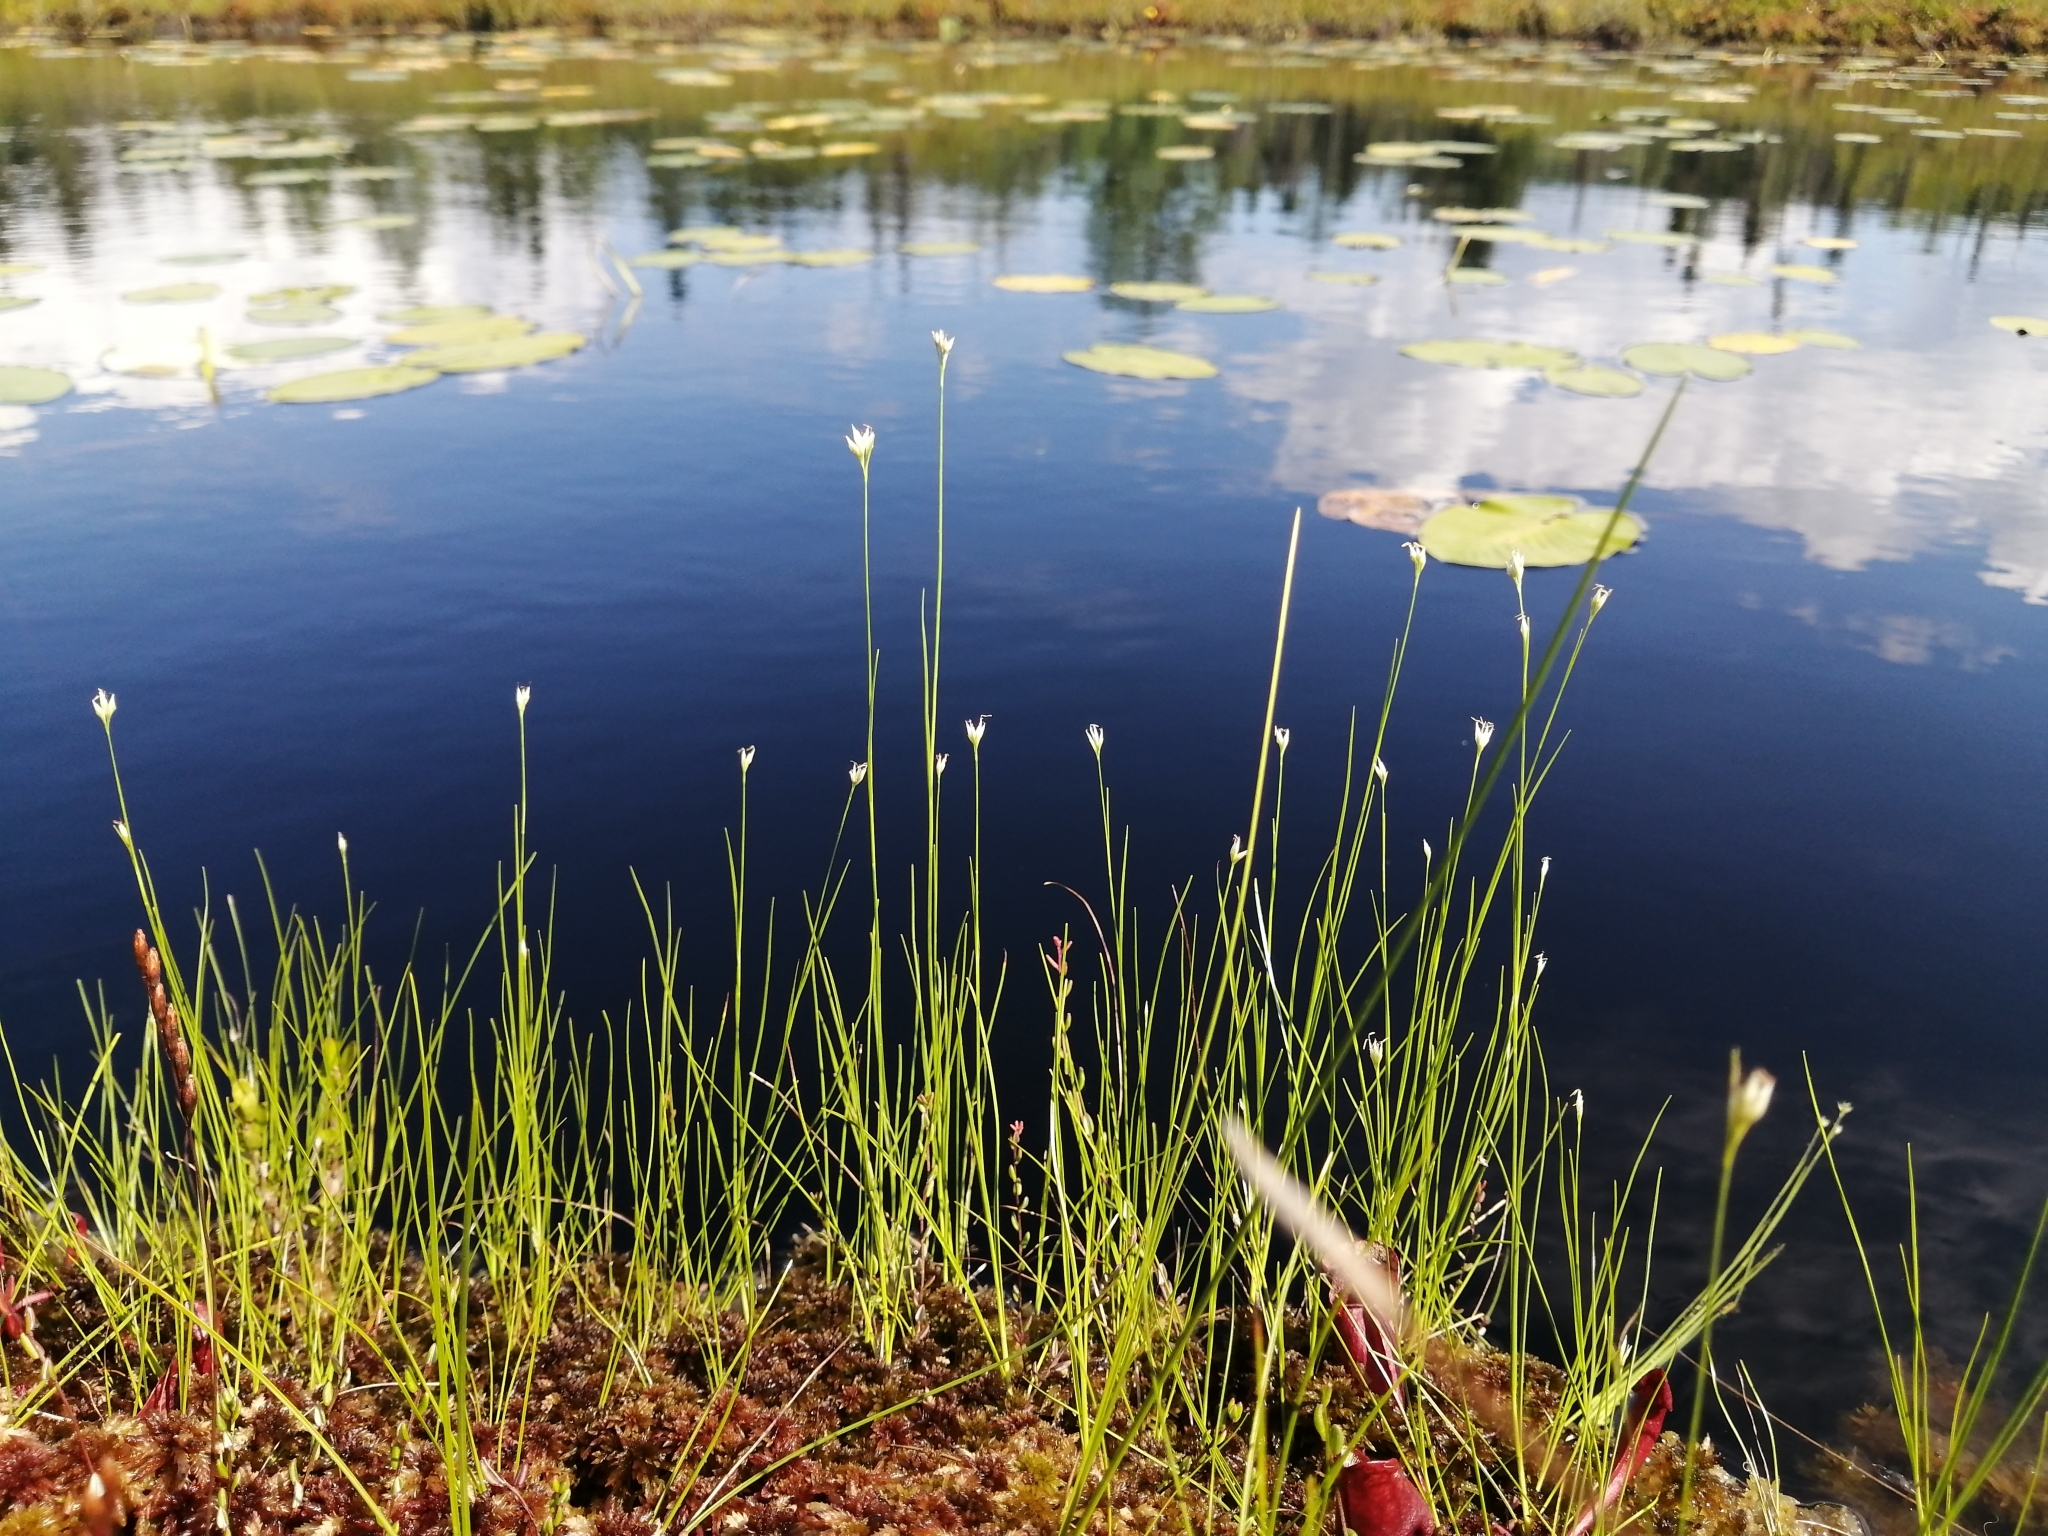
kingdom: Plantae
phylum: Tracheophyta
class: Liliopsida
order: Poales
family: Cyperaceae
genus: Rhynchospora
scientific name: Rhynchospora alba
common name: White beak-sedge
